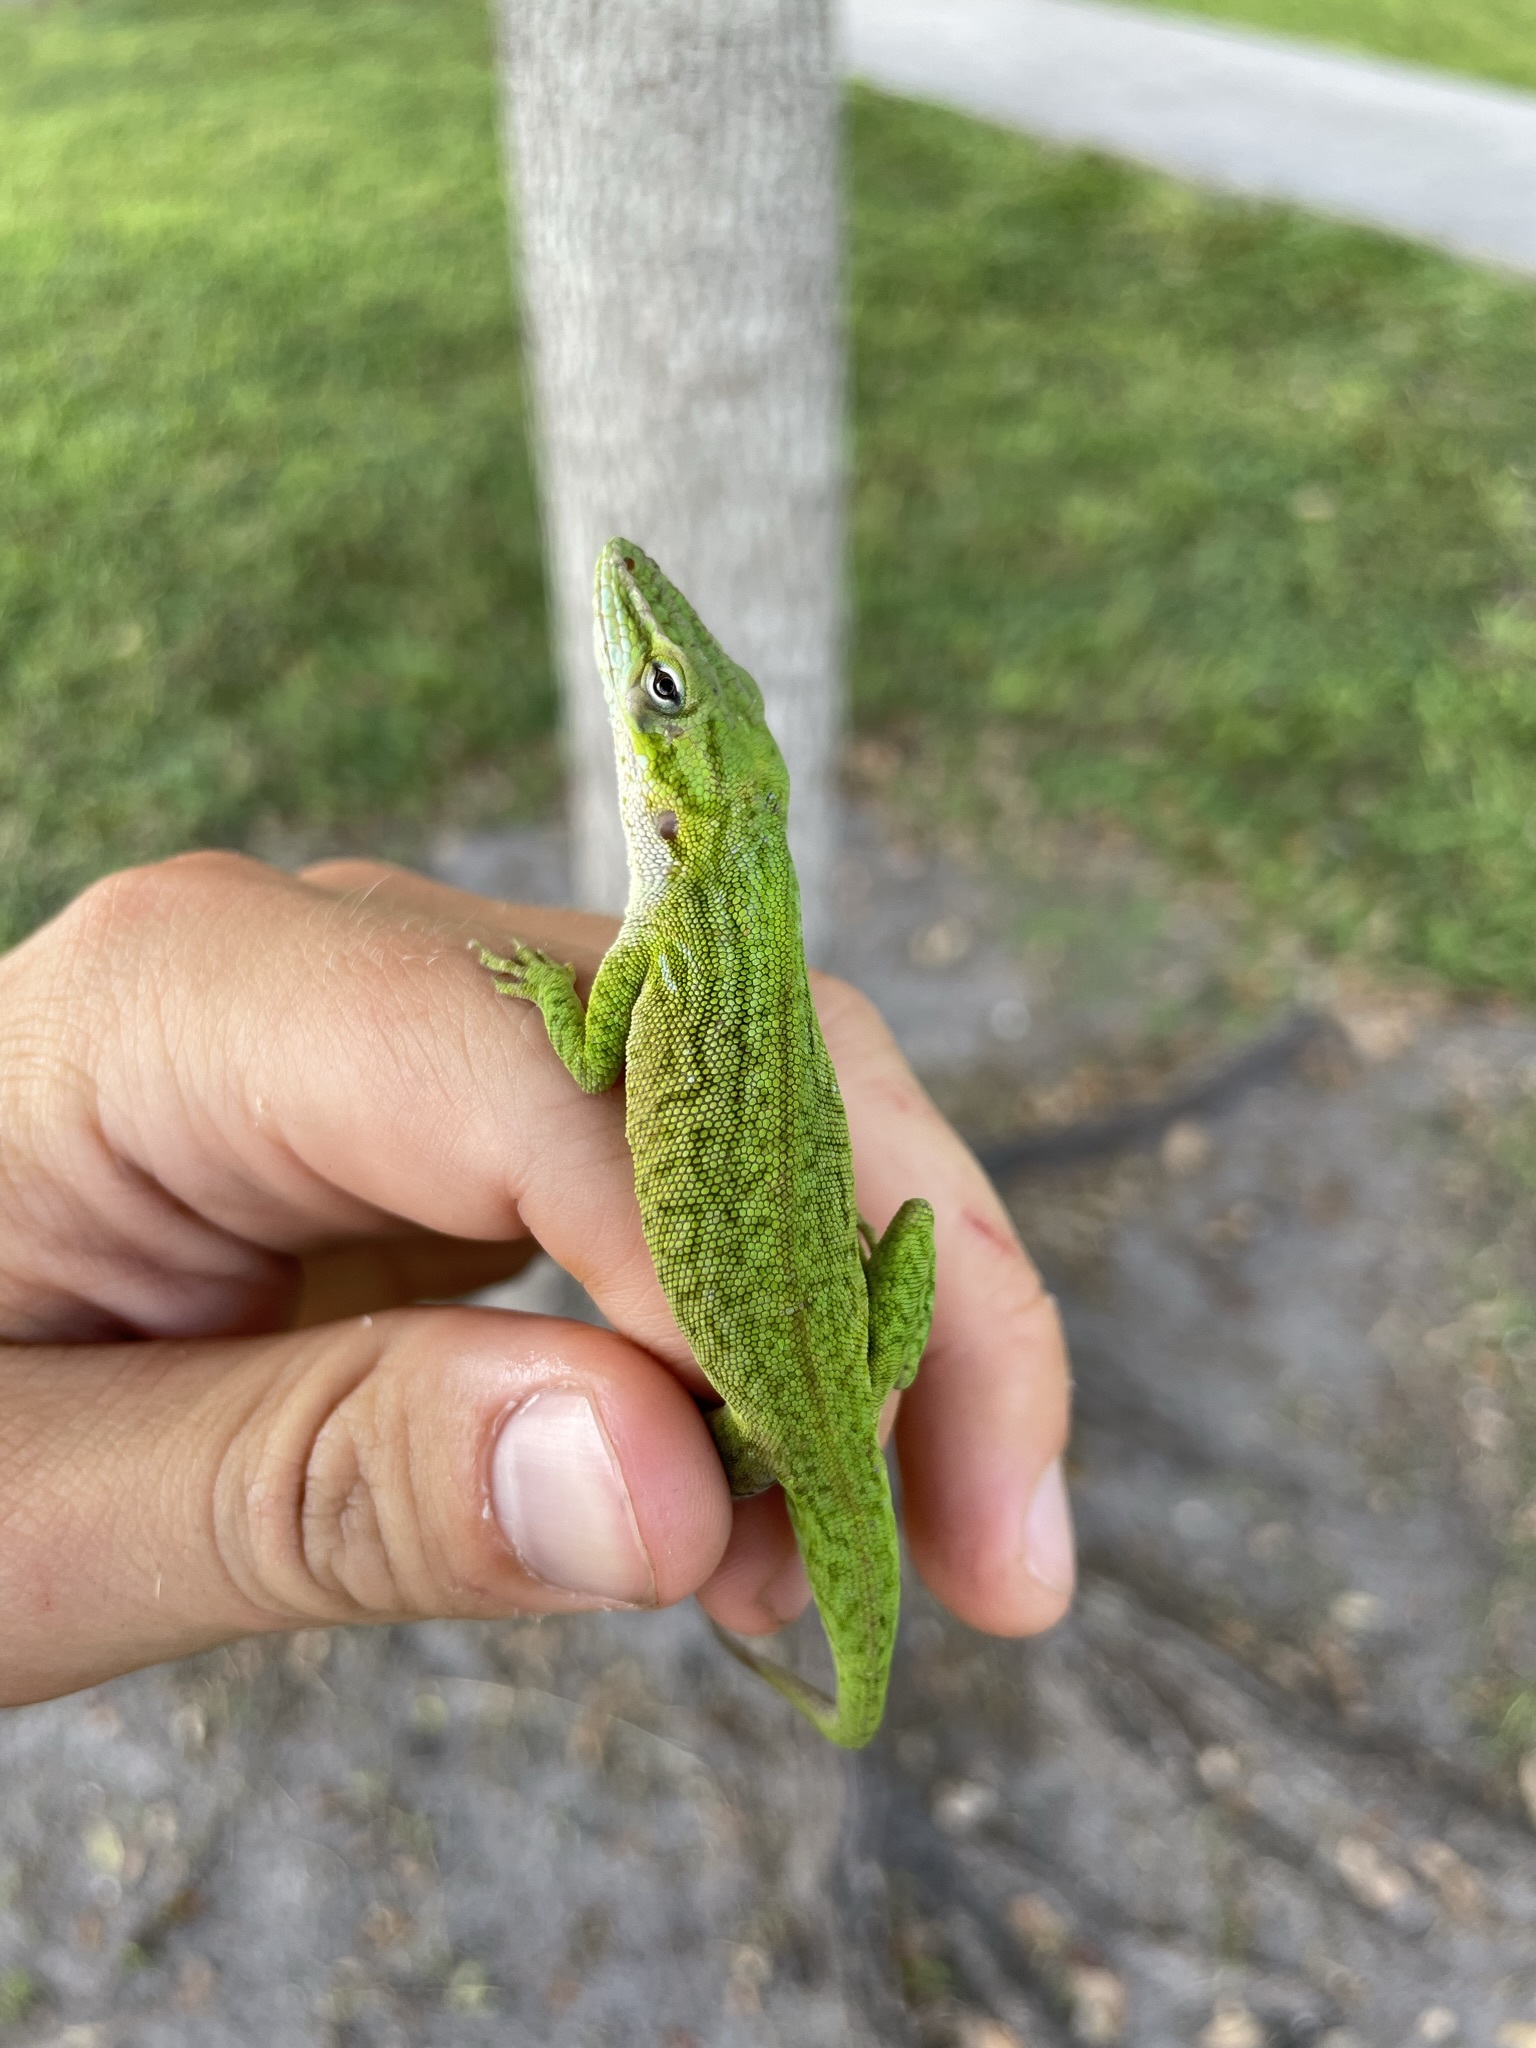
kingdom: Animalia
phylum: Chordata
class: Squamata
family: Dactyloidae
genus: Anolis
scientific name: Anolis carolinensis
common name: Green anole
